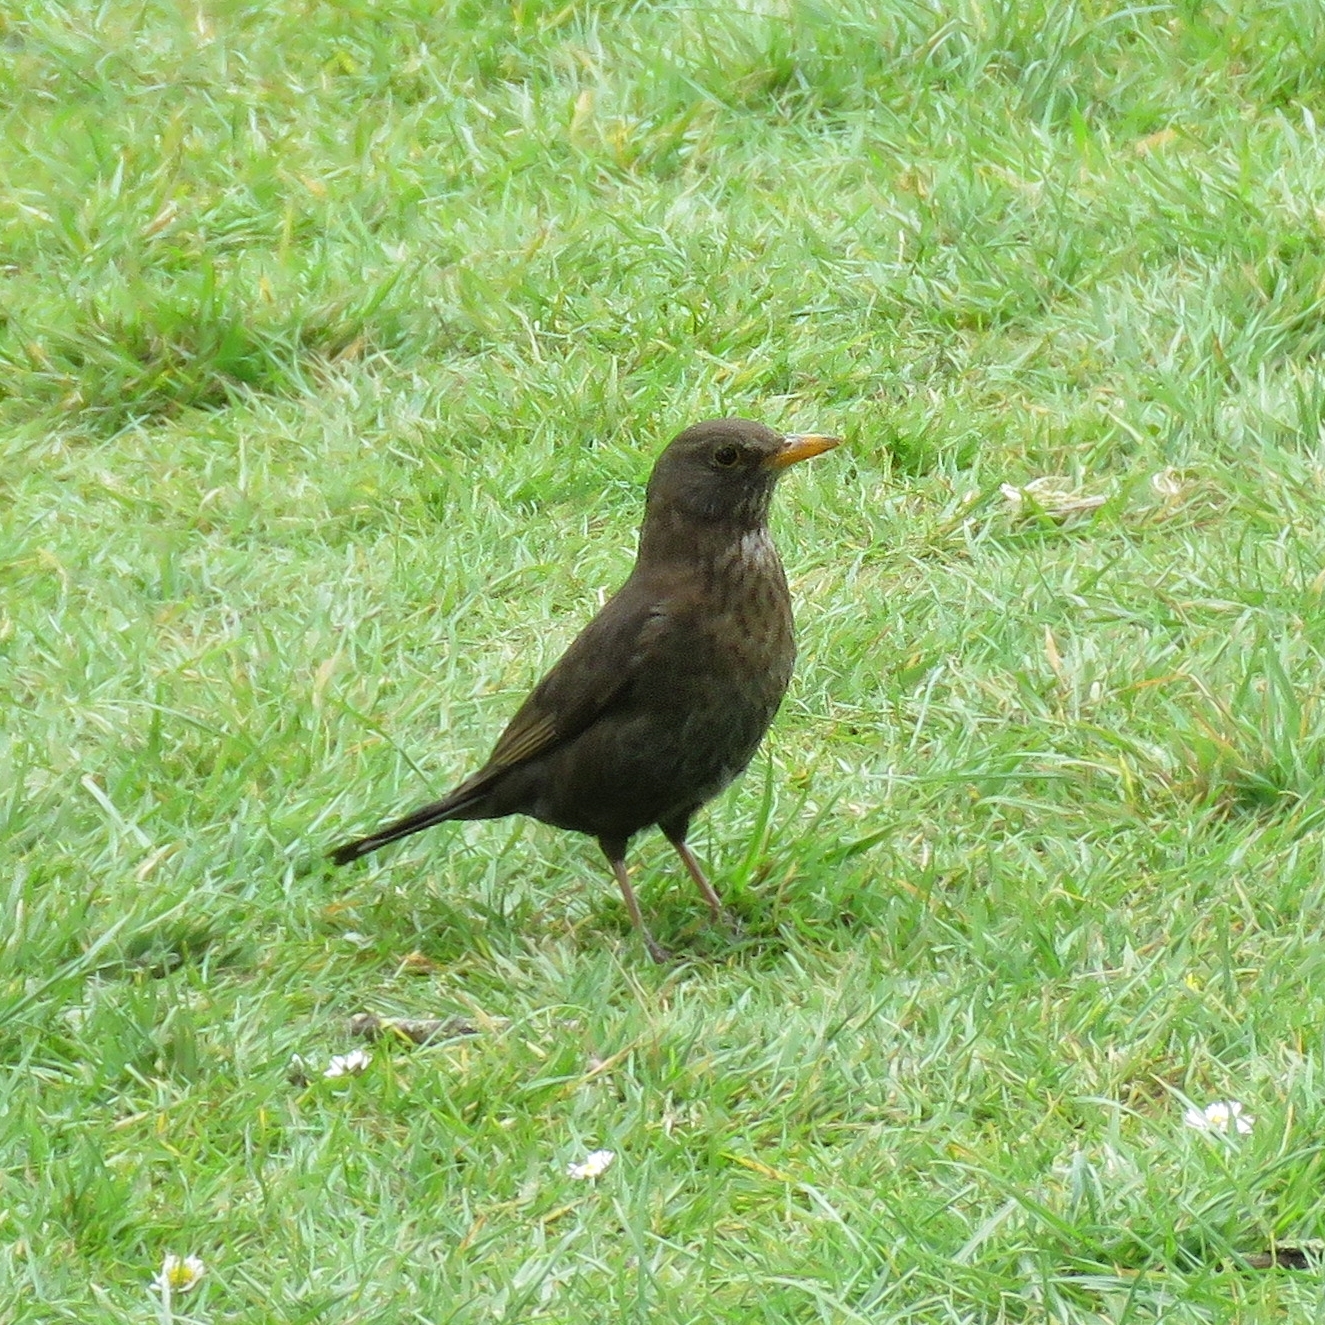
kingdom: Animalia
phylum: Chordata
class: Aves
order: Passeriformes
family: Turdidae
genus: Turdus
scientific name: Turdus merula
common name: Common blackbird
